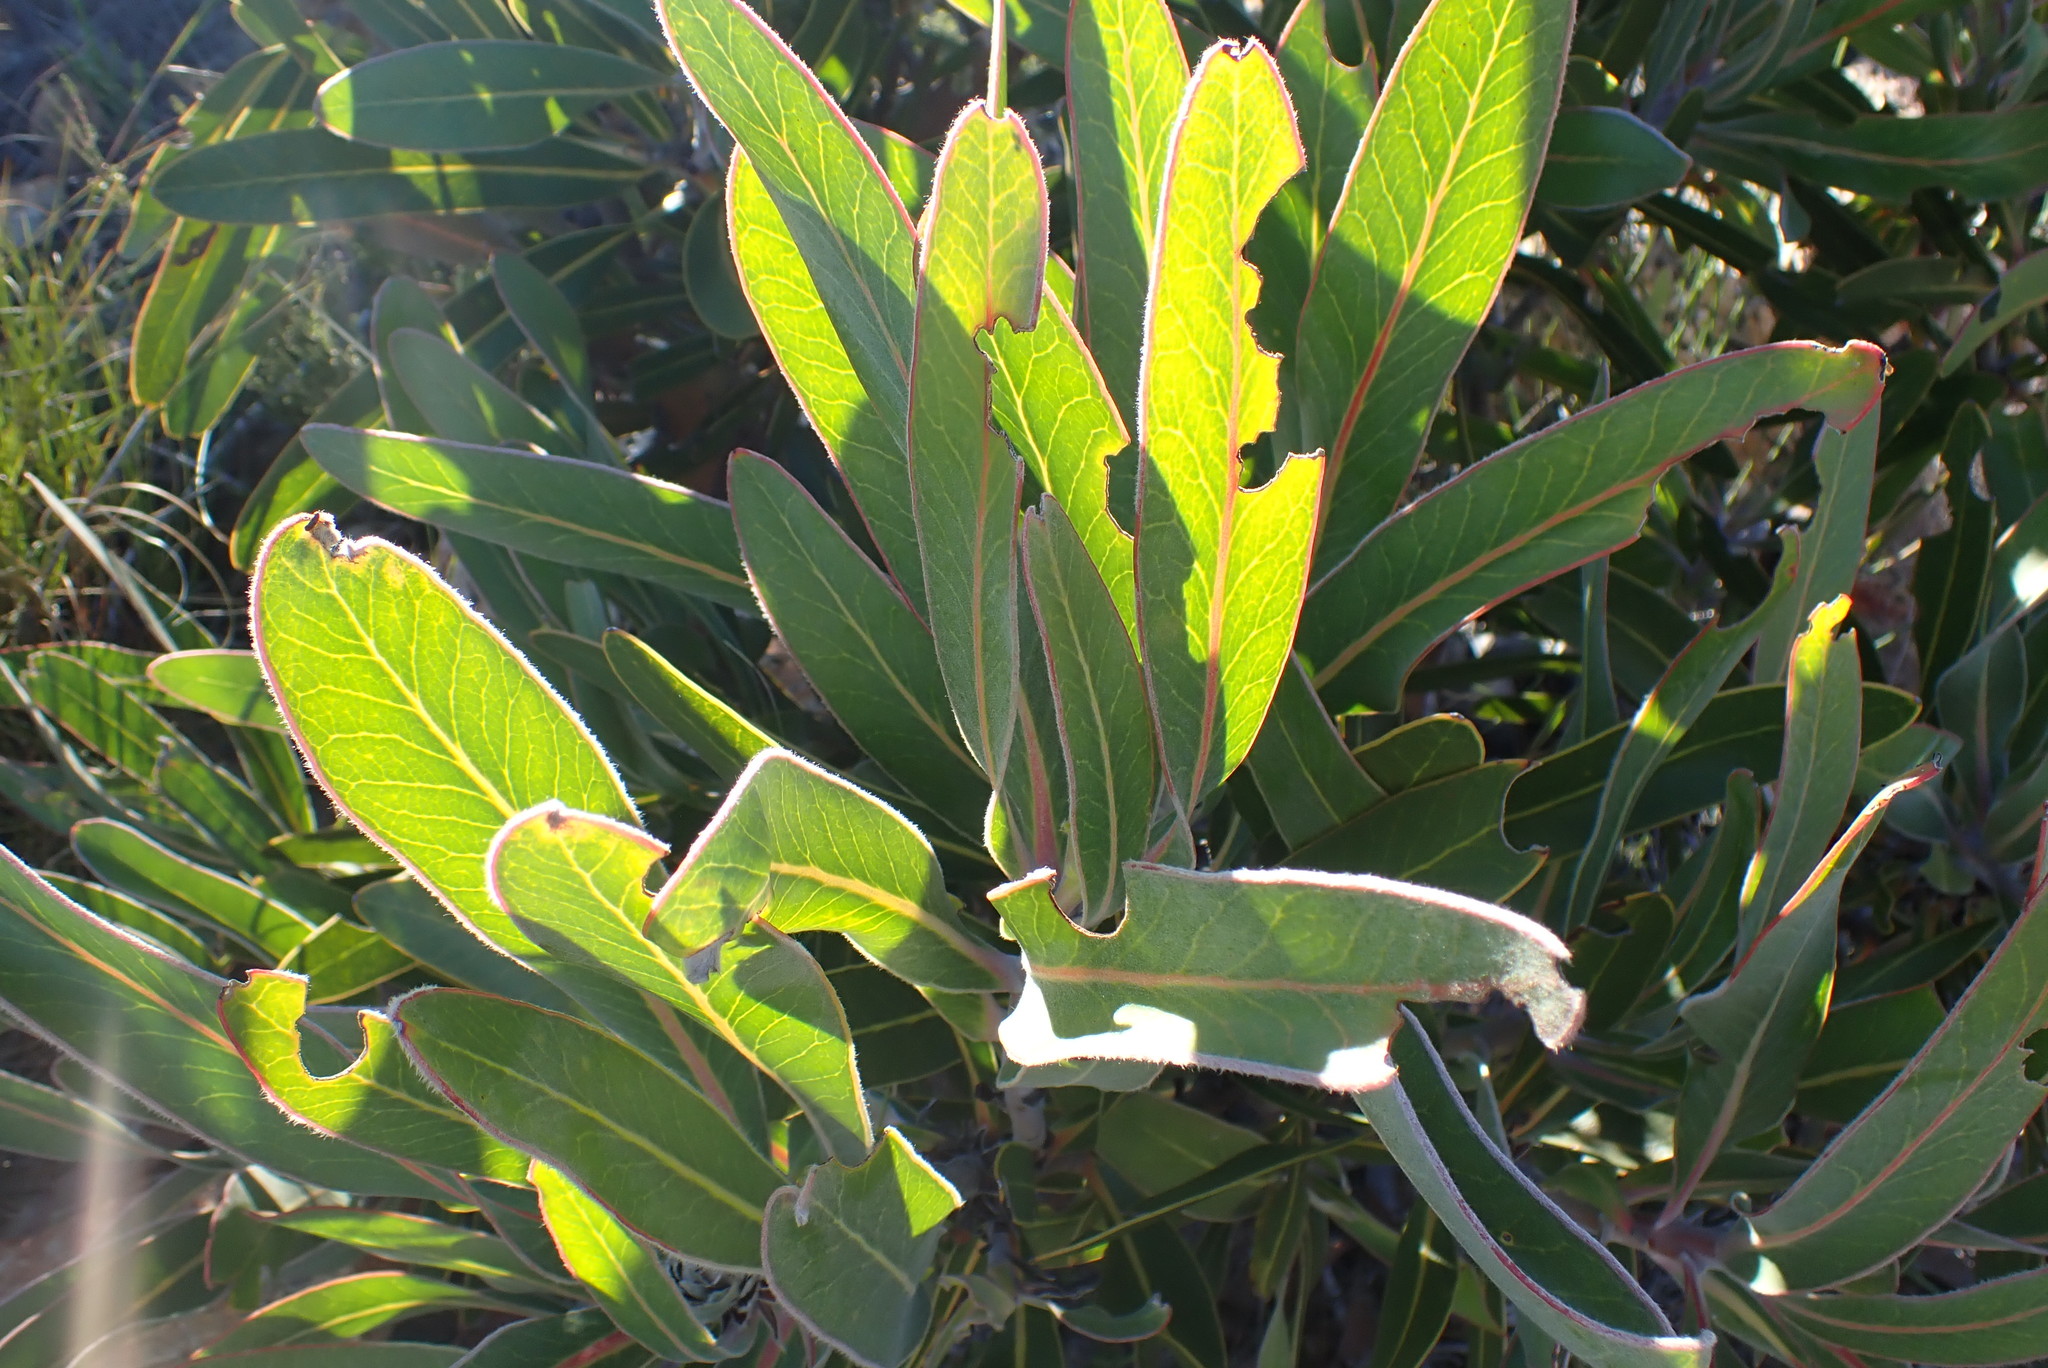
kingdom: Plantae
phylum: Tracheophyta
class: Magnoliopsida
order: Proteales
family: Proteaceae
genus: Protea
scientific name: Protea lorifolia
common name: Strap-leaved protea
